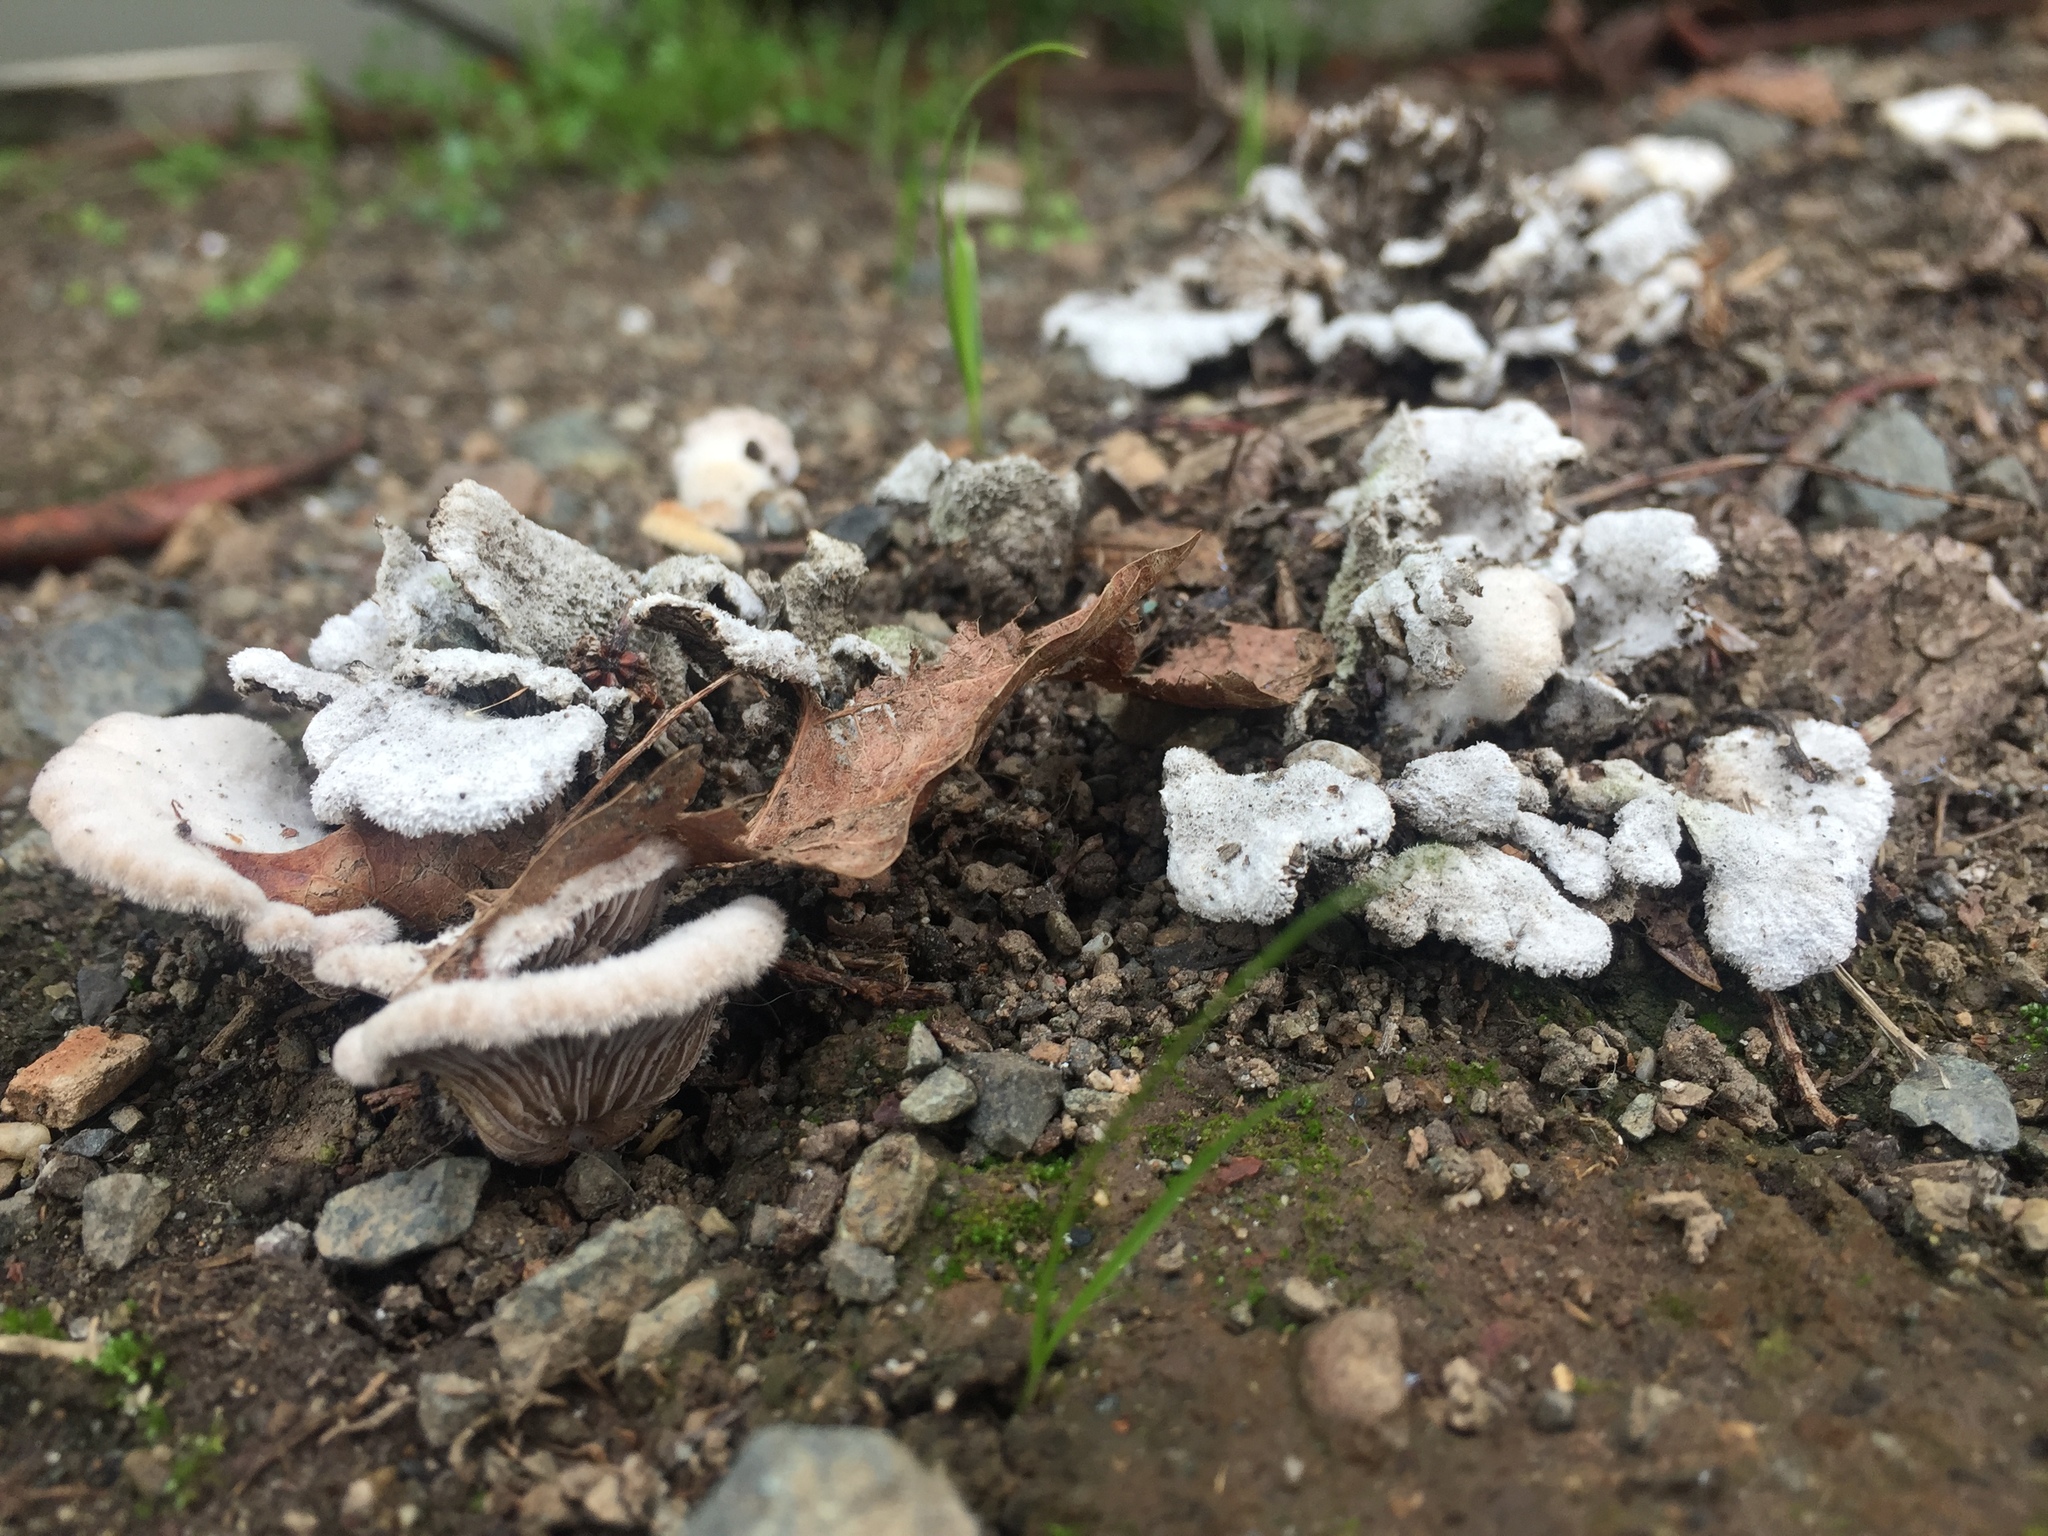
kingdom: Fungi
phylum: Basidiomycota
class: Agaricomycetes
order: Agaricales
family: Schizophyllaceae
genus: Schizophyllum
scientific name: Schizophyllum commune
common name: Common porecrust
